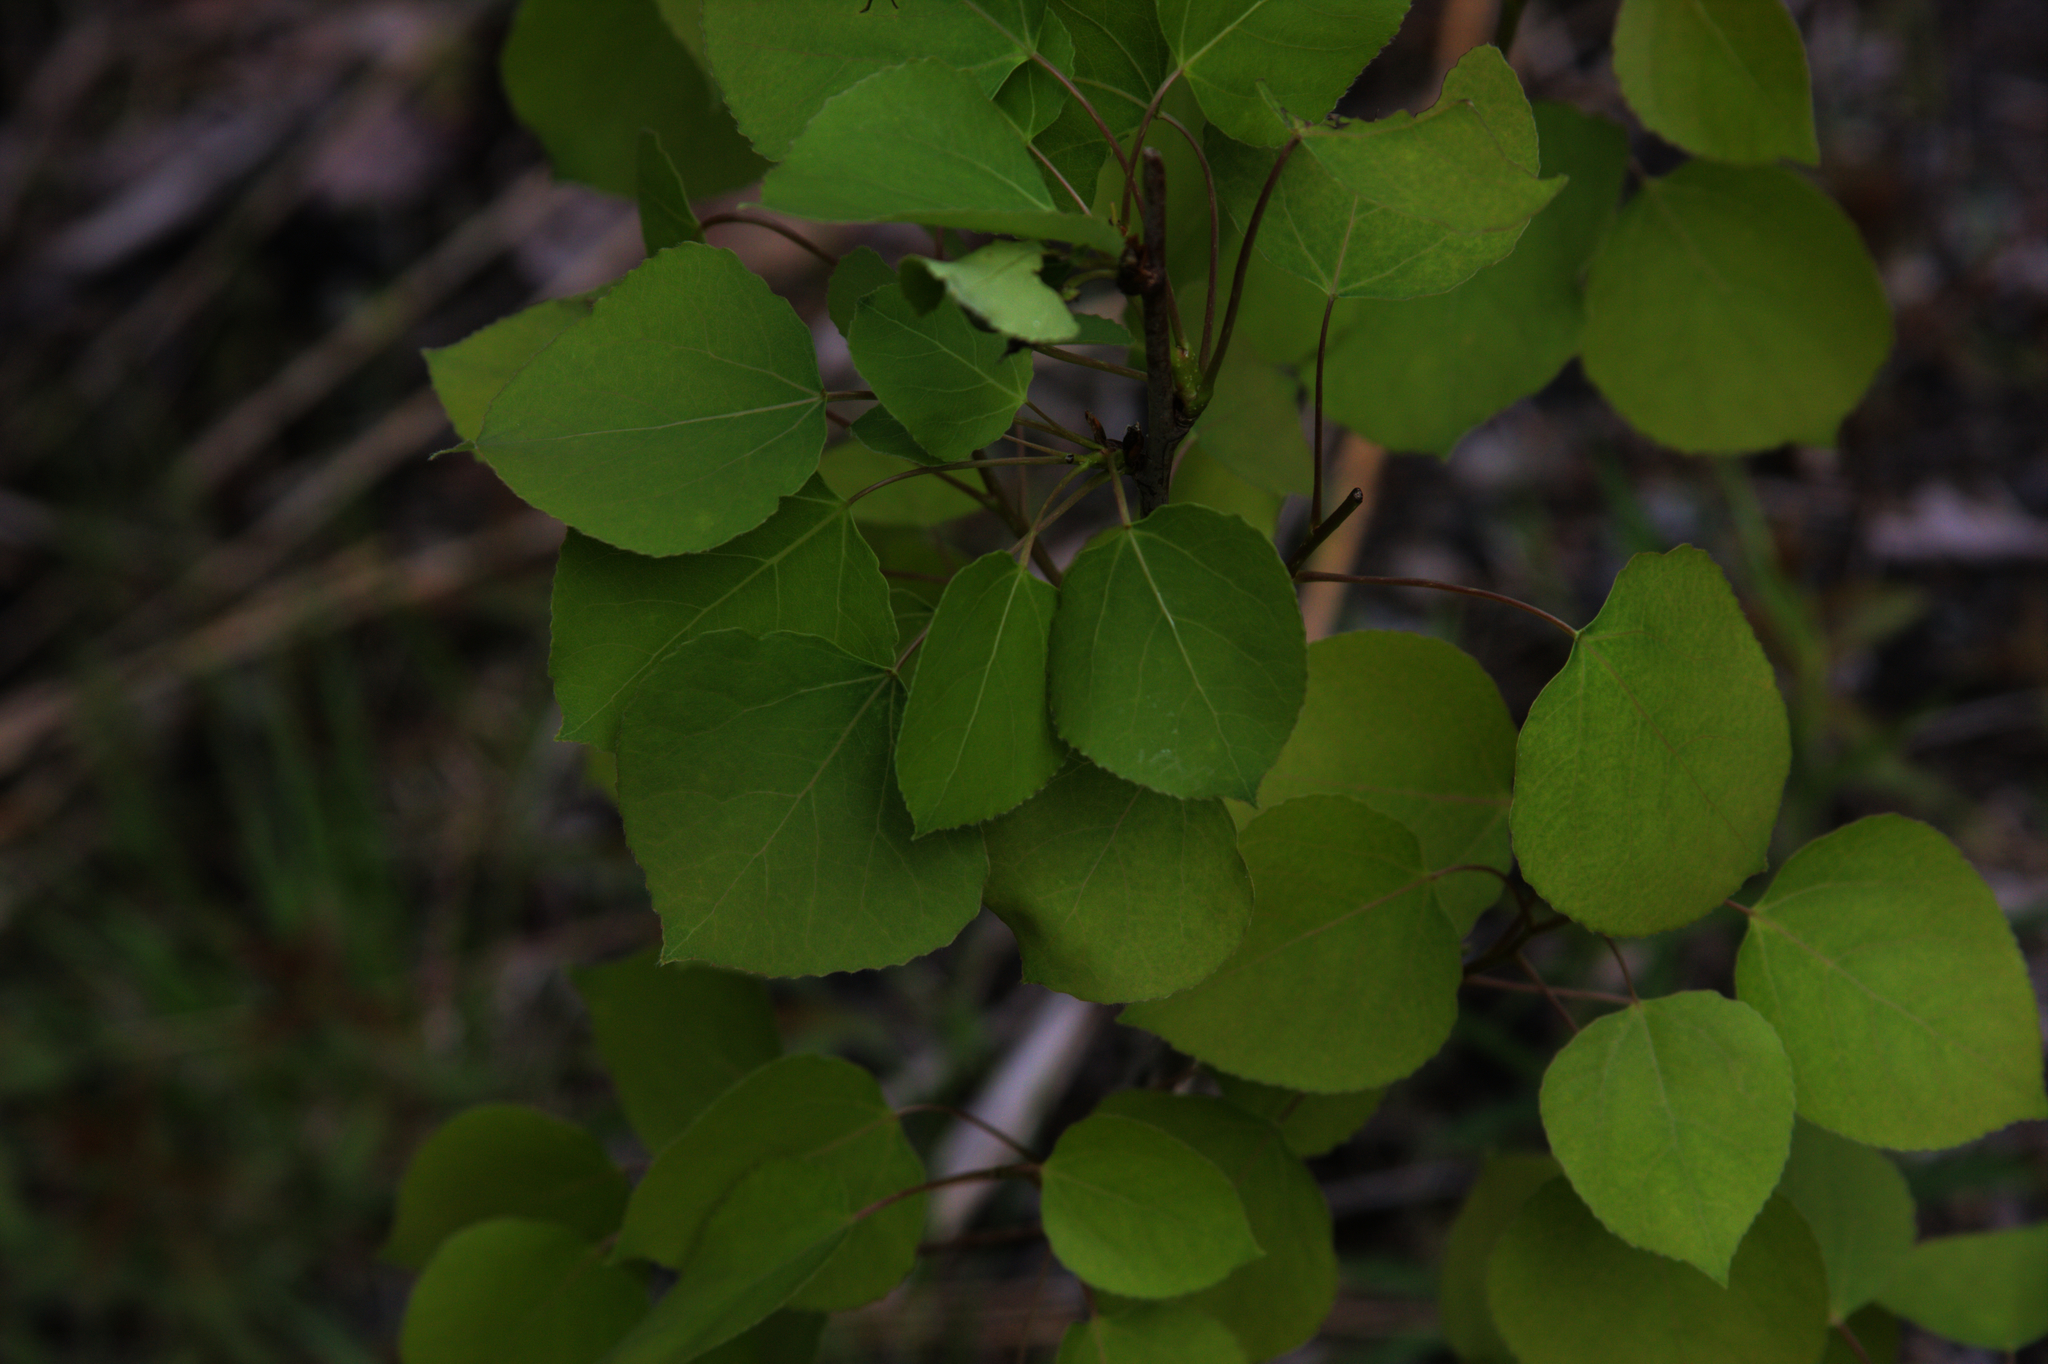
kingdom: Plantae
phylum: Tracheophyta
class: Magnoliopsida
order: Malpighiales
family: Salicaceae
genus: Populus
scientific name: Populus tremuloides
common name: Quaking aspen
